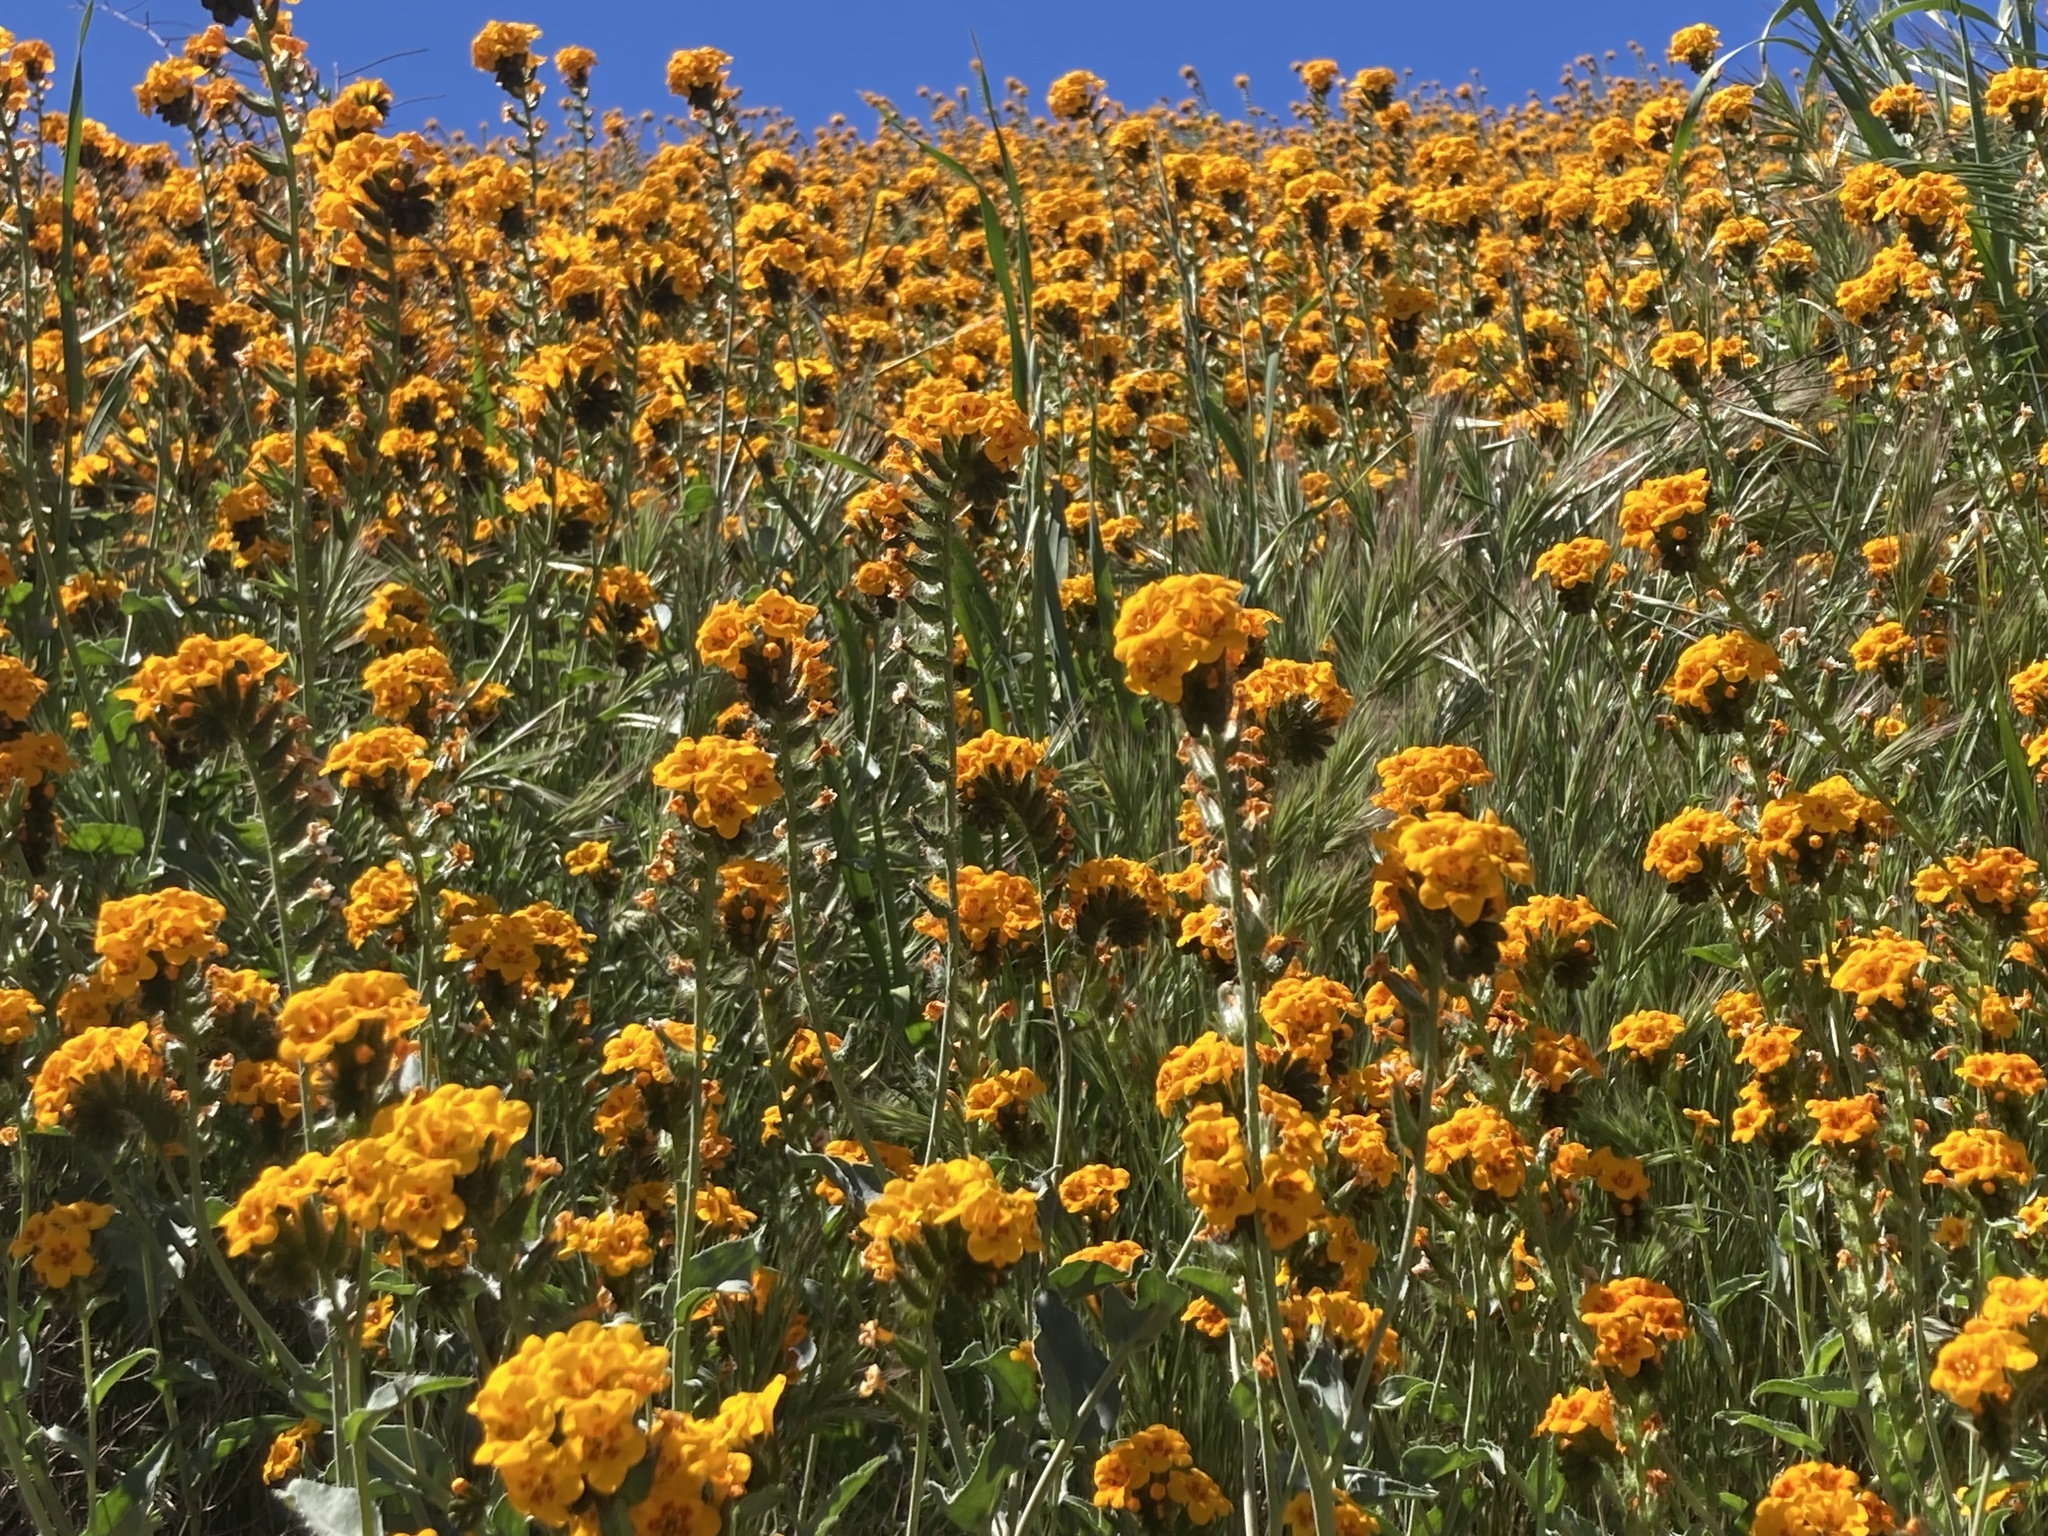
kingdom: Plantae
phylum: Tracheophyta
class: Magnoliopsida
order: Boraginales
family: Boraginaceae
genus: Amsinckia
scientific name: Amsinckia vernicosa
